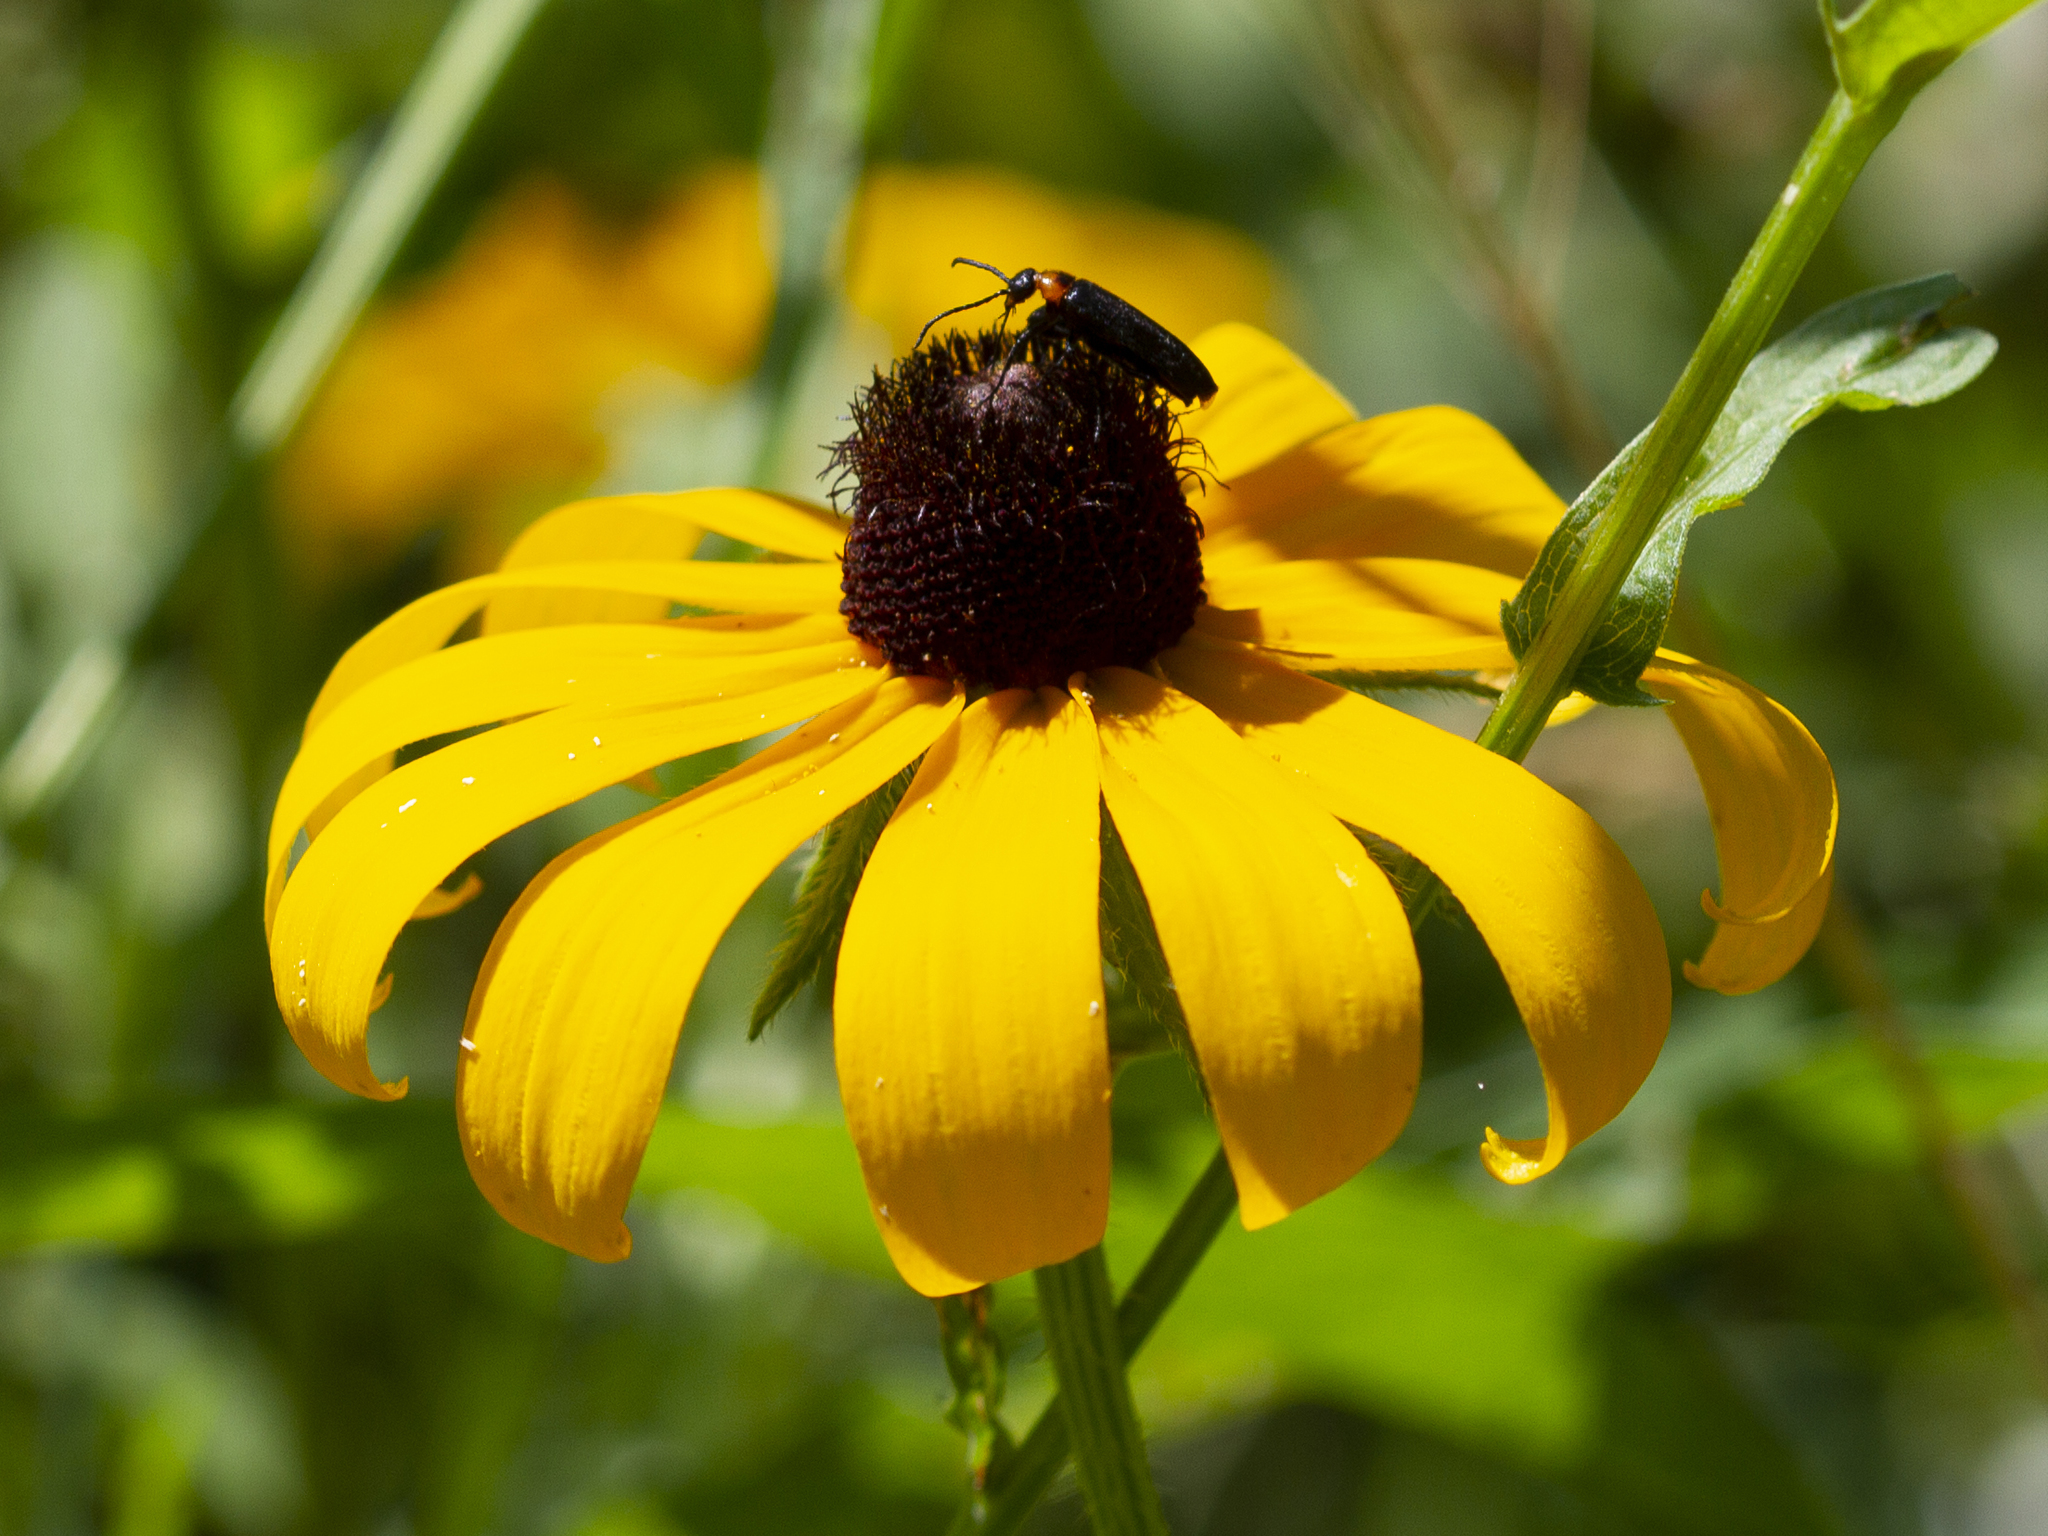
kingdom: Animalia
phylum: Arthropoda
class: Insecta
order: Coleoptera
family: Meloidae
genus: Nemognatha
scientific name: Nemognatha nemorensis
